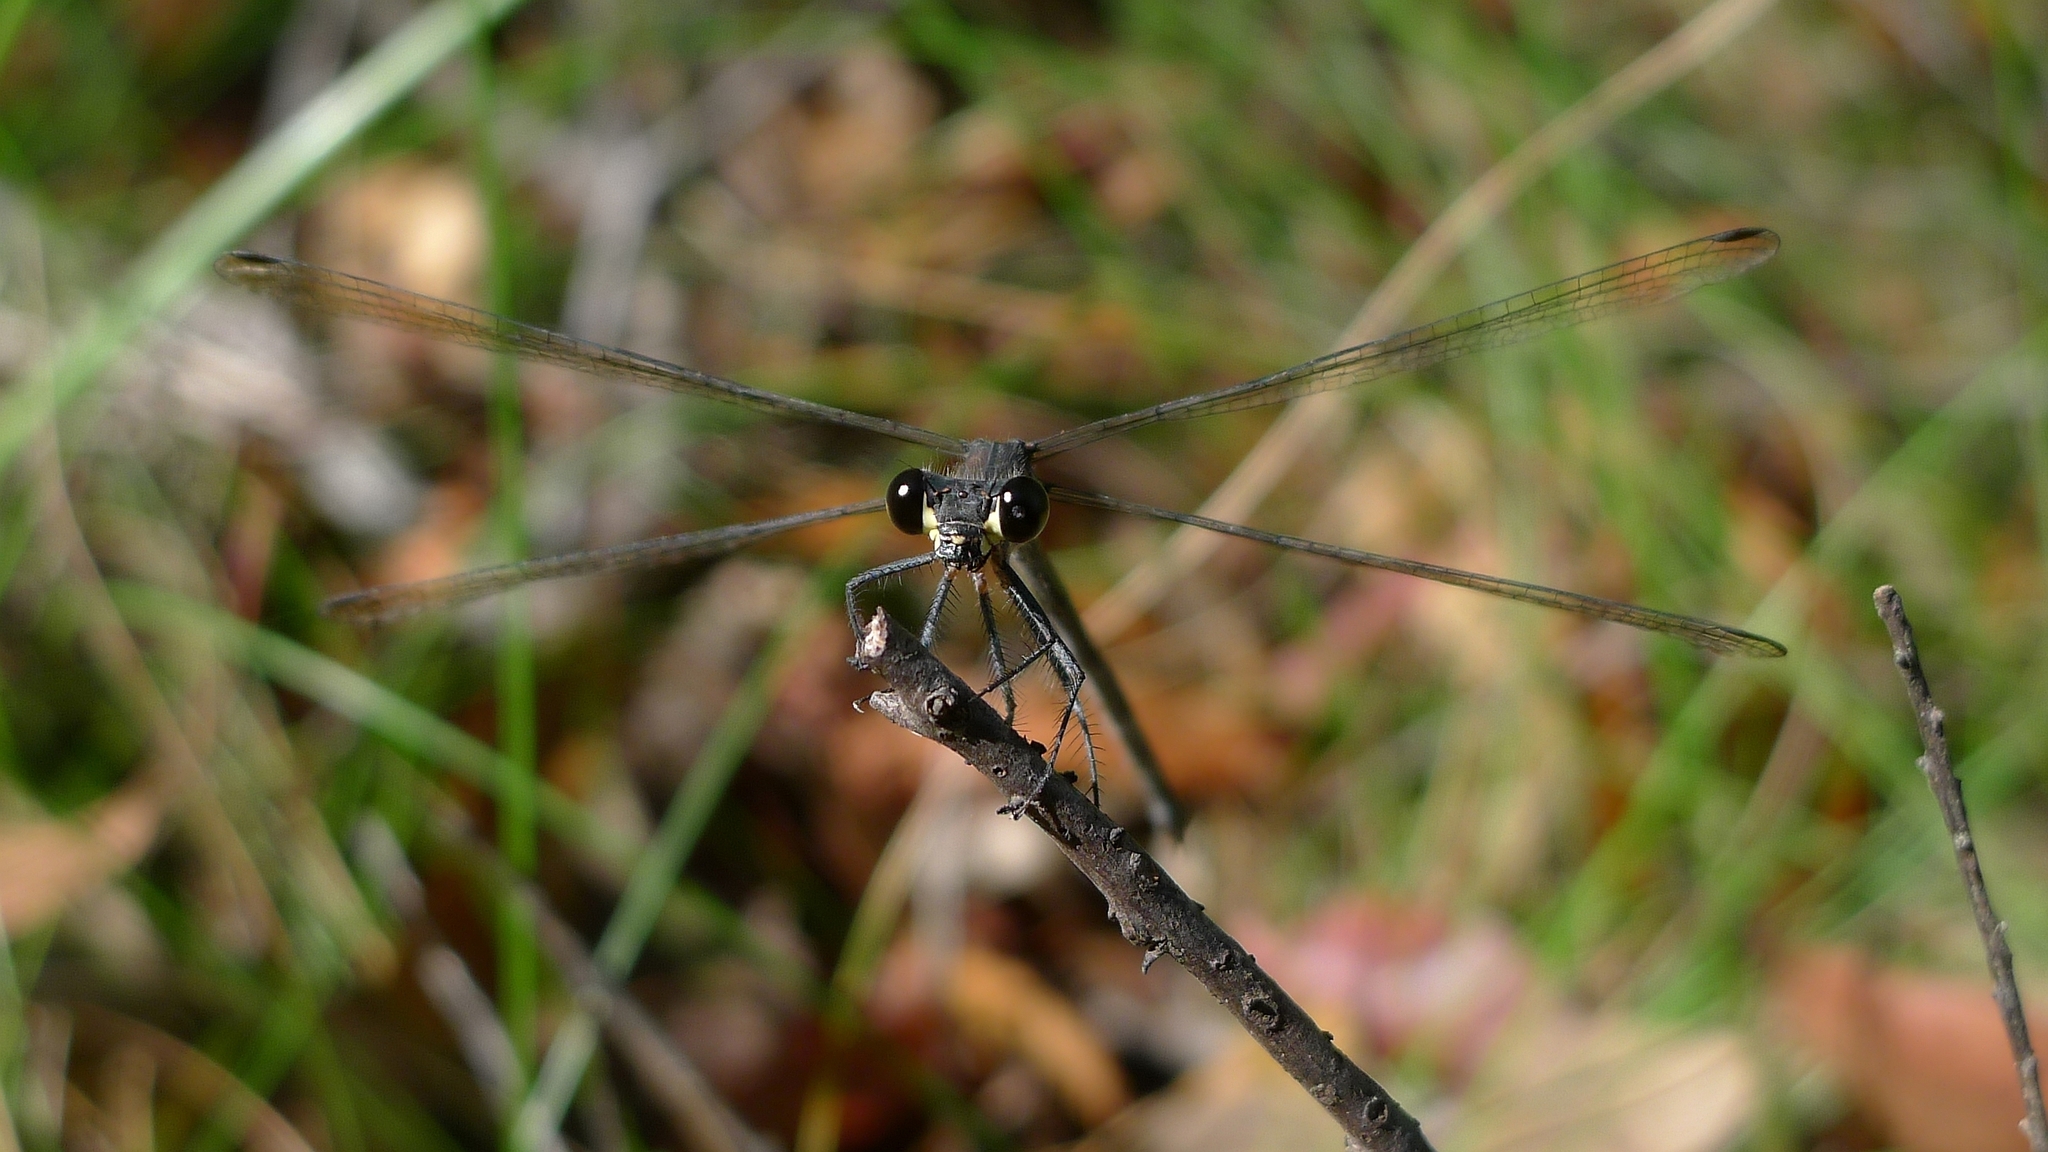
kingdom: Animalia
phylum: Arthropoda
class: Insecta
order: Odonata
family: Argiolestidae
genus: Austroargiolestes
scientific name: Austroargiolestes icteromelas
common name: Common flatwing
